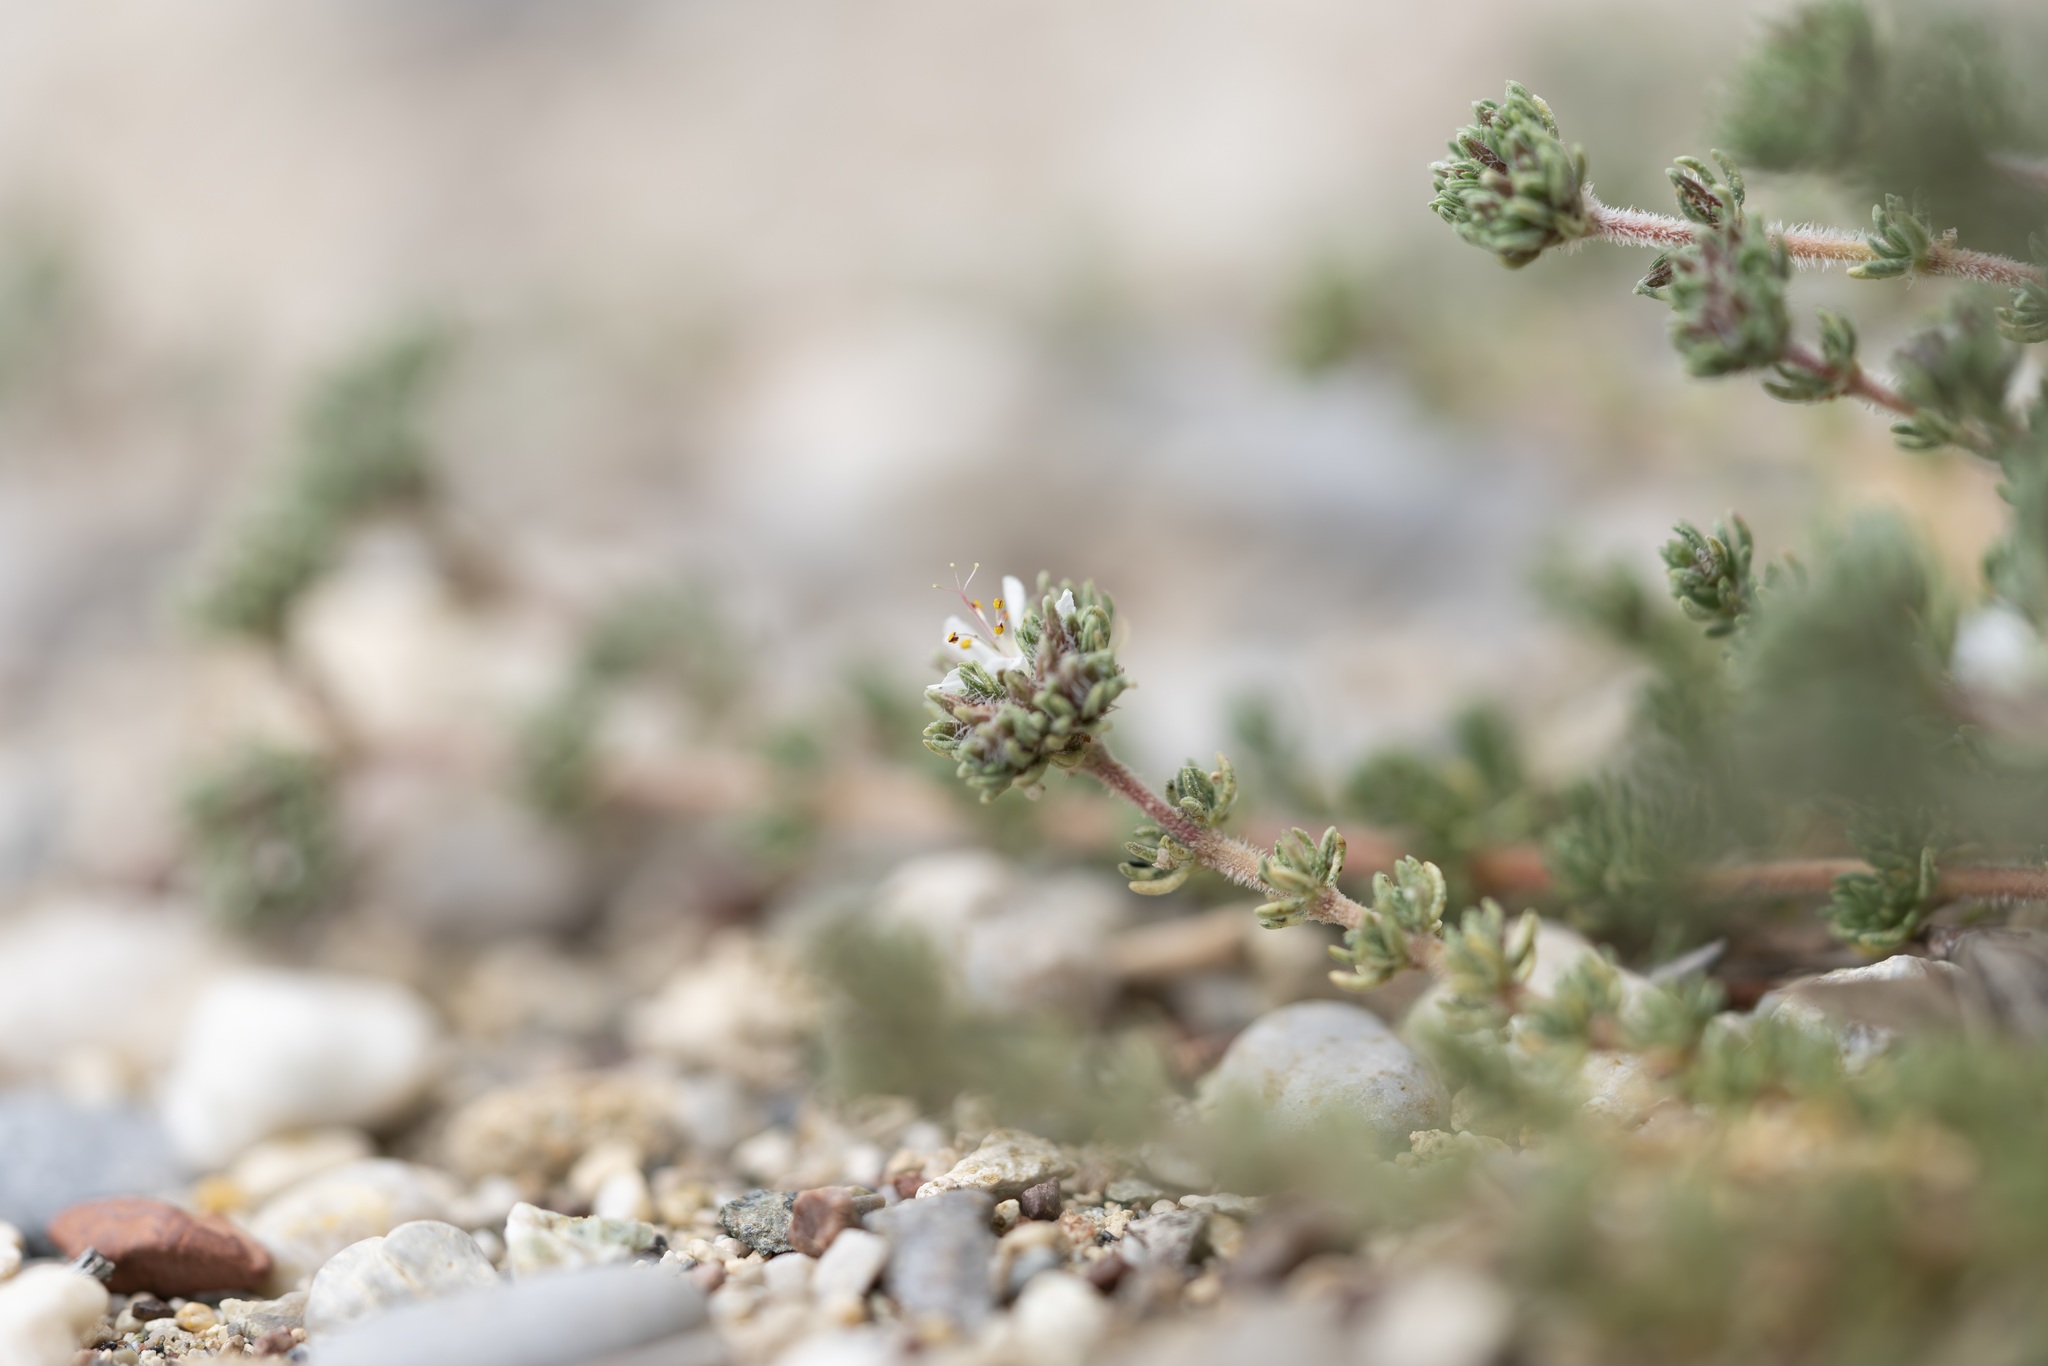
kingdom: Plantae
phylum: Tracheophyta
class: Magnoliopsida
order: Caryophyllales
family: Frankeniaceae
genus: Frankenia
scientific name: Frankenia hirsuta
